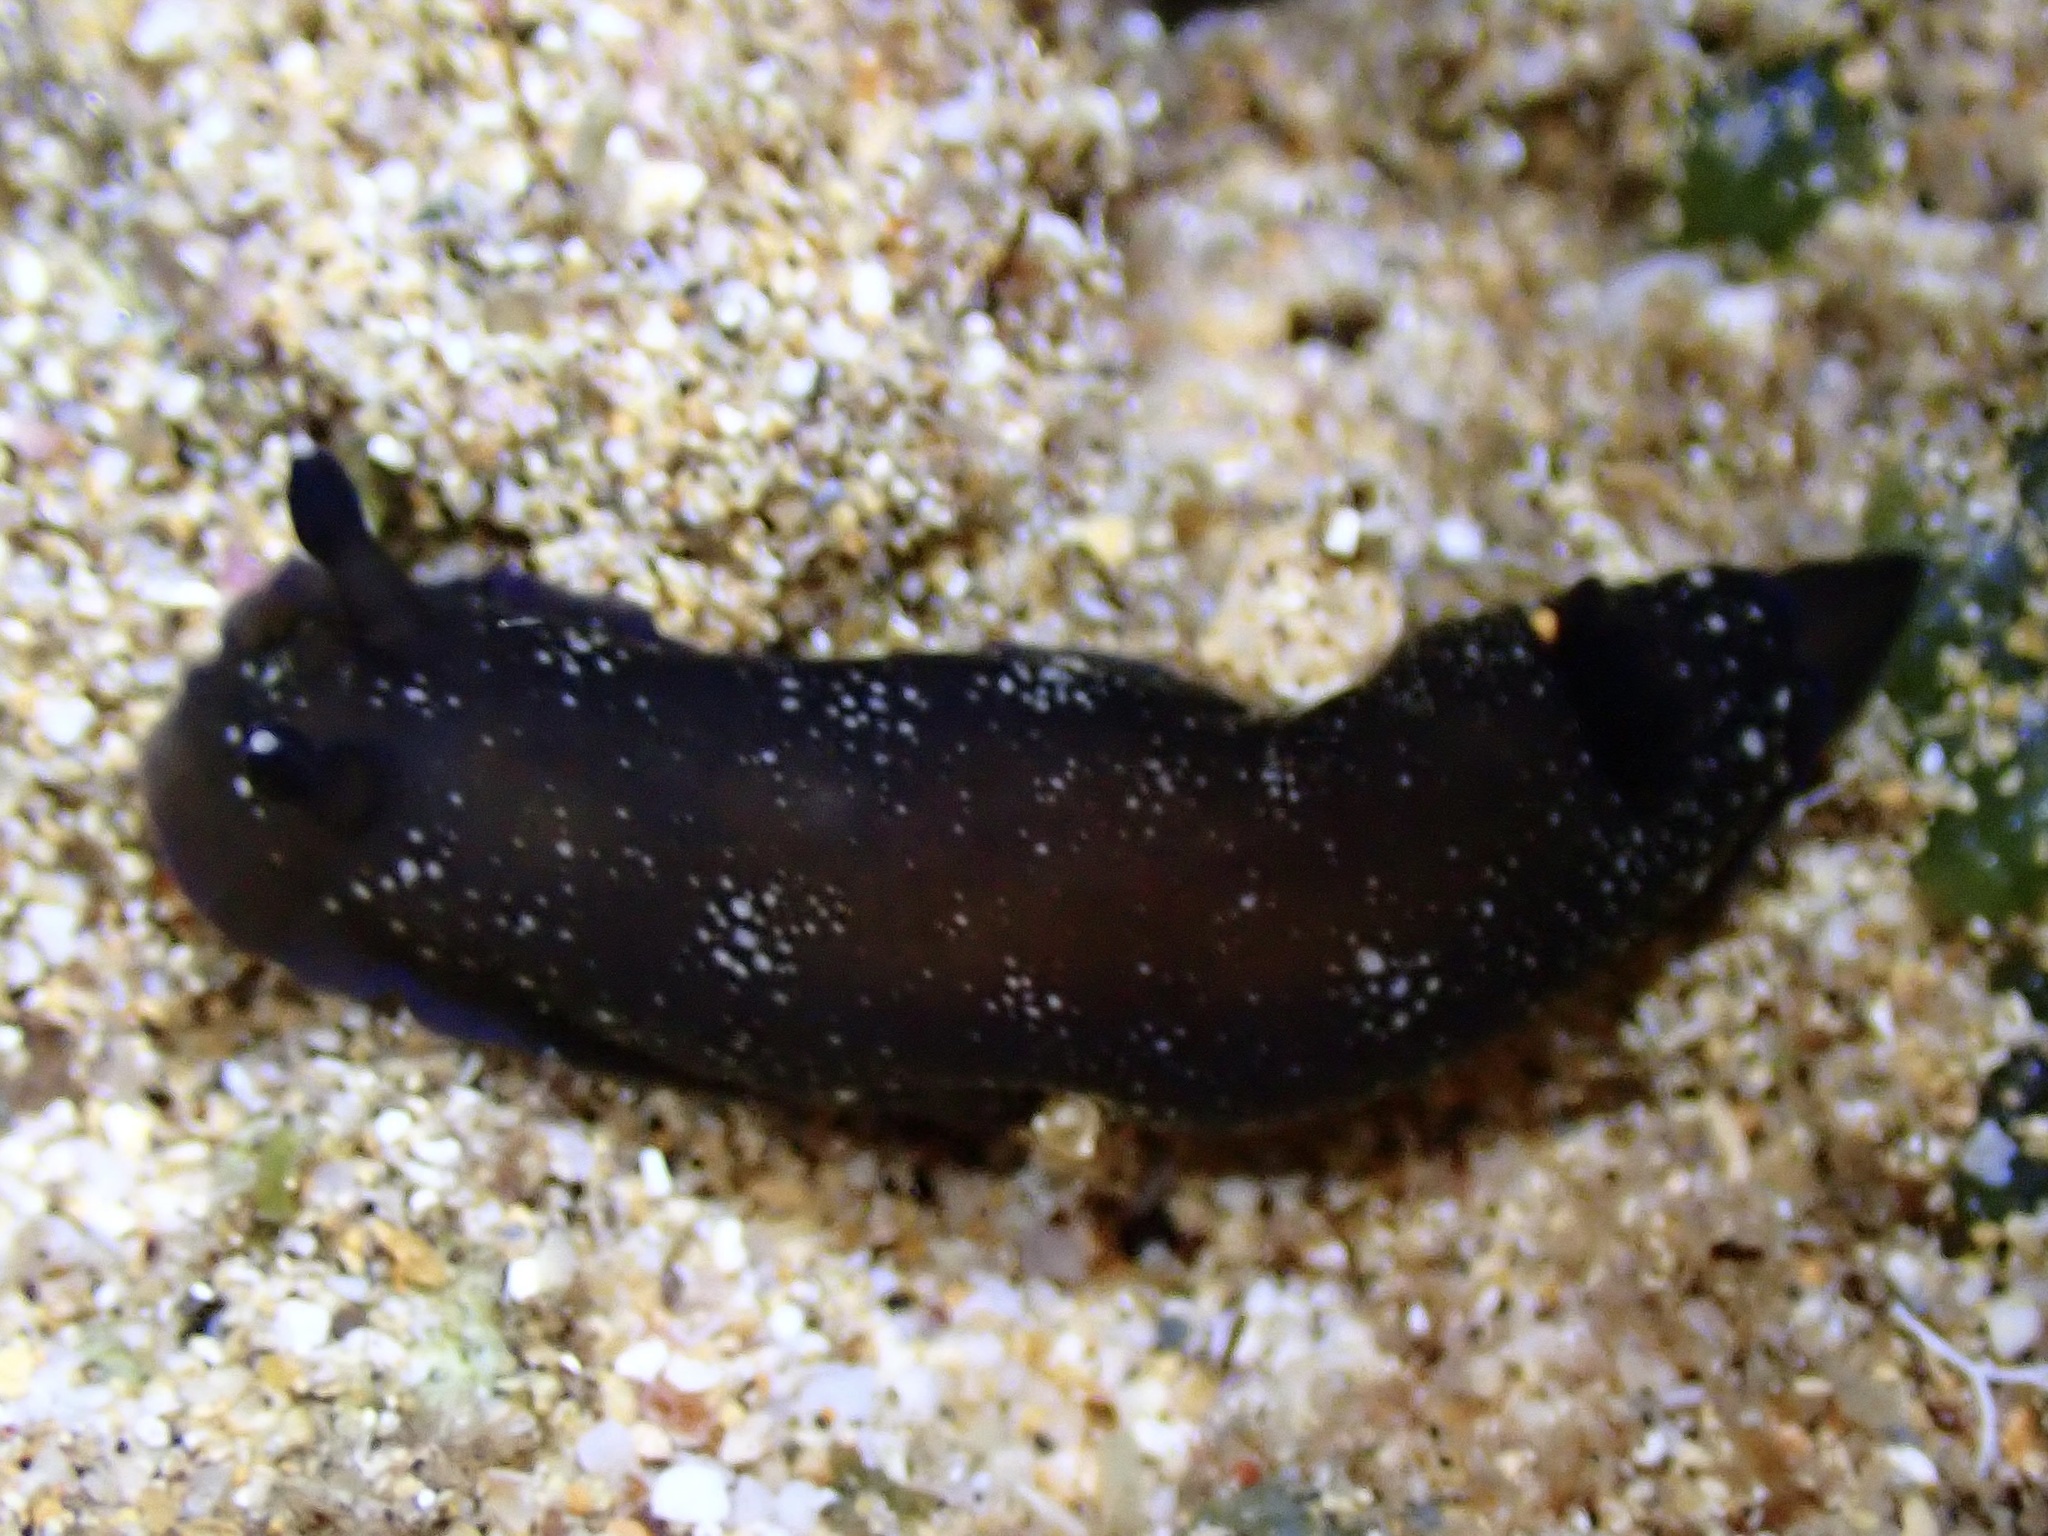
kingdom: Animalia
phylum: Mollusca
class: Gastropoda
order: Nudibranchia
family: Dendrodorididae
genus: Dendrodoris
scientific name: Dendrodoris nigra
